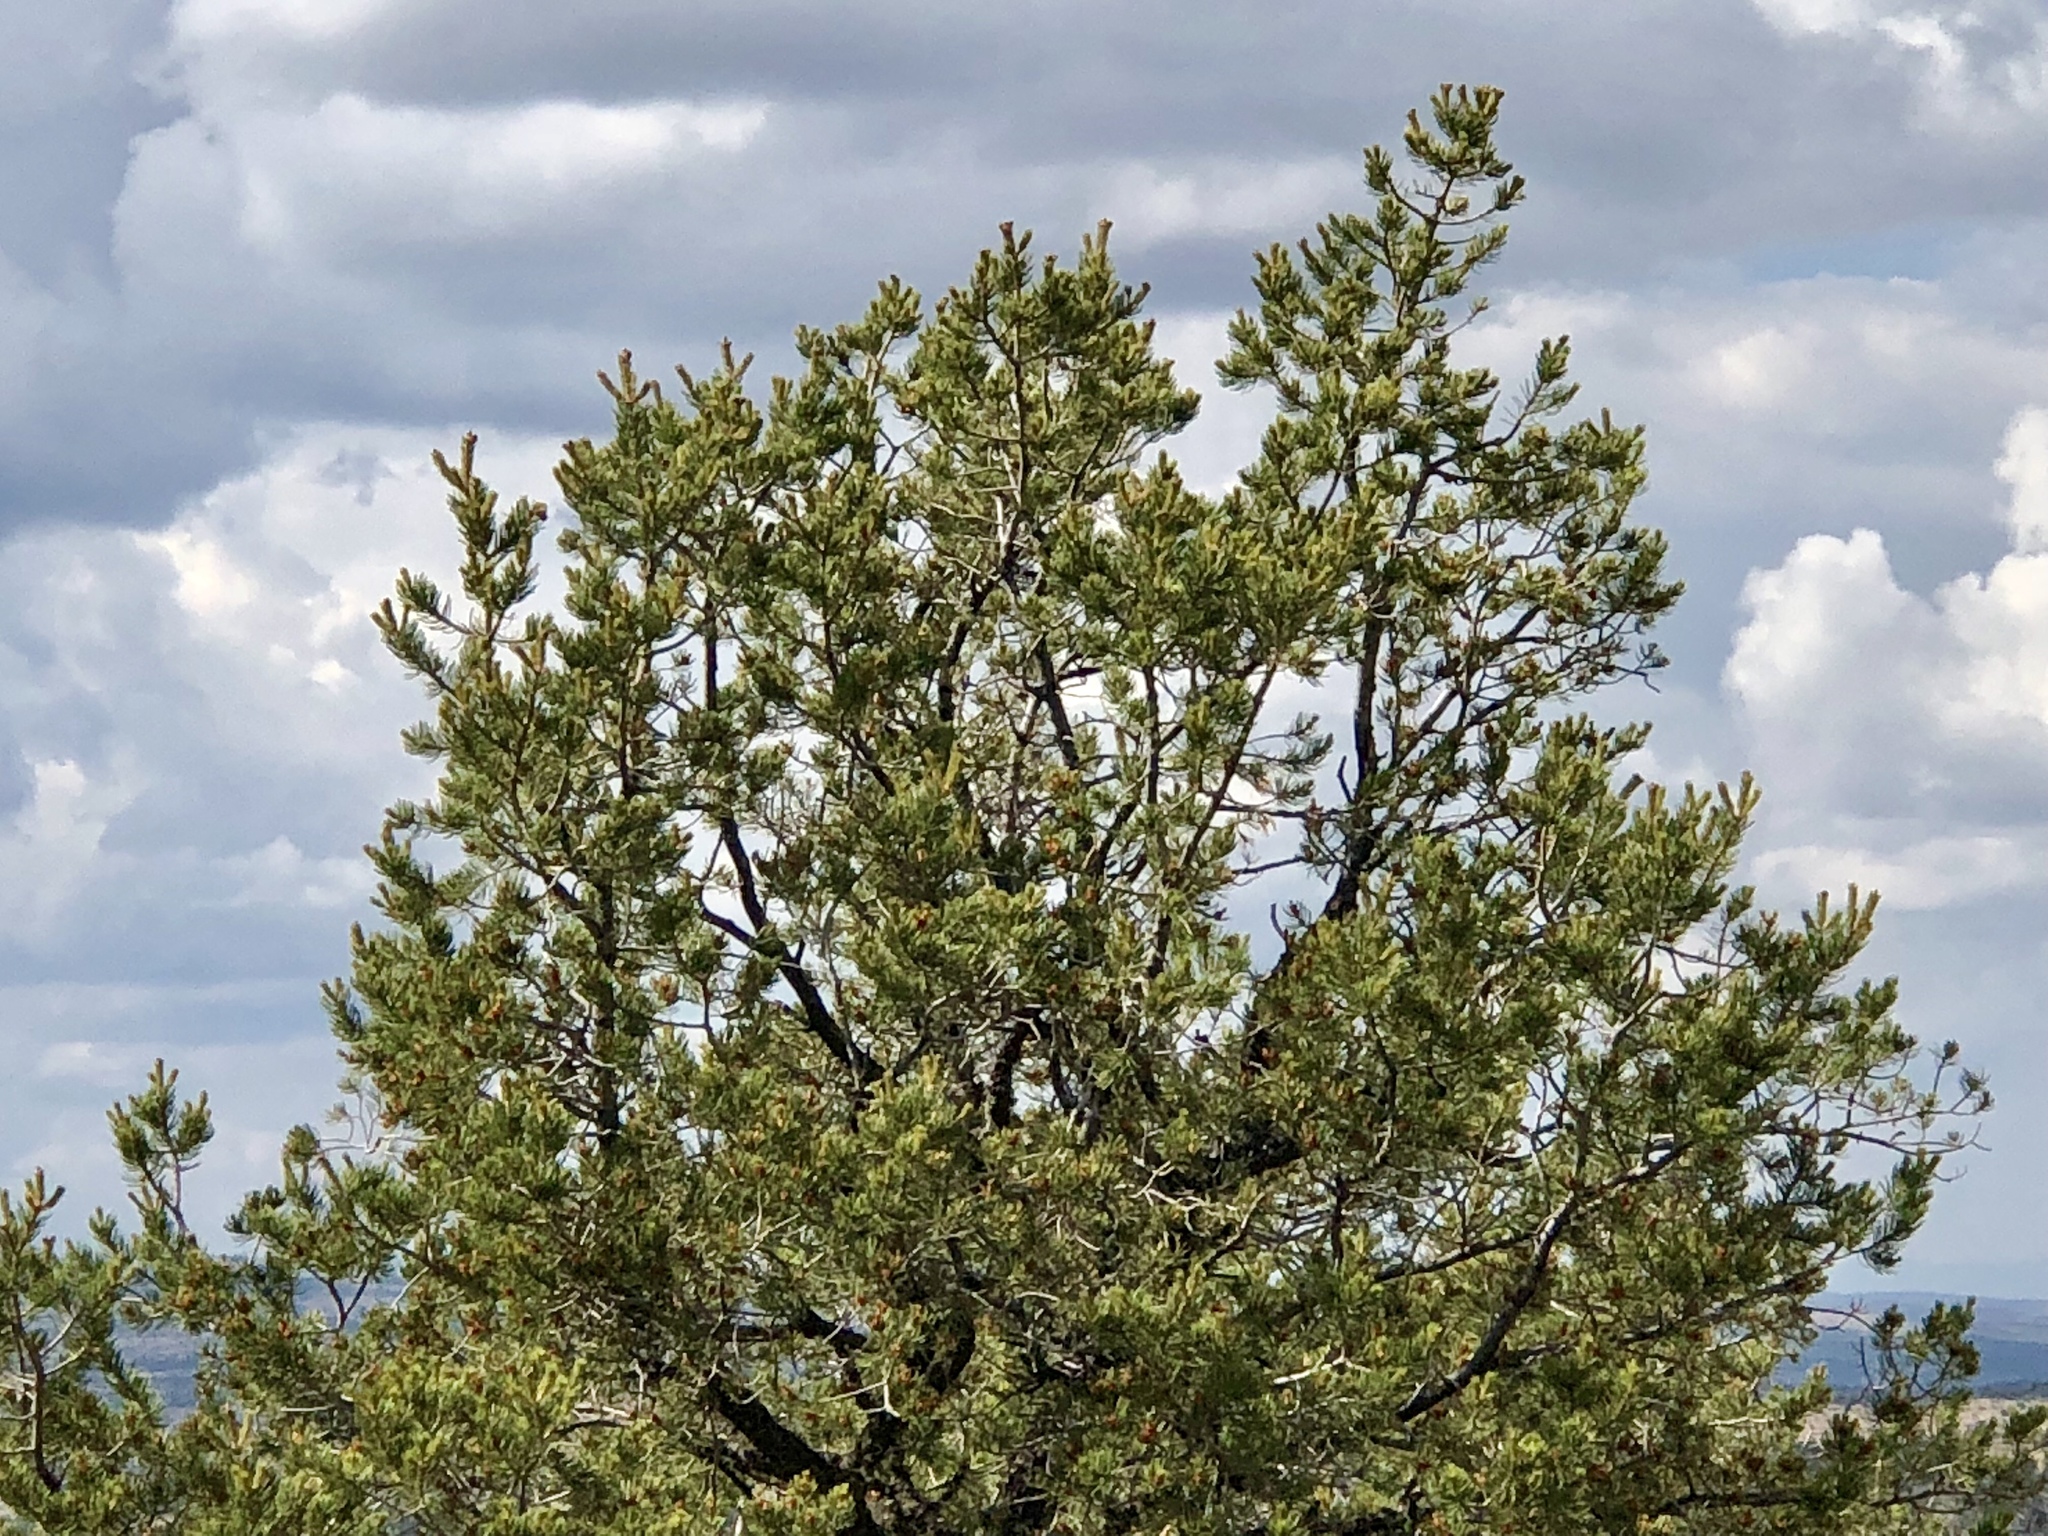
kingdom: Plantae
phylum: Tracheophyta
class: Pinopsida
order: Pinales
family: Pinaceae
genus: Pinus
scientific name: Pinus edulis
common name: Colorado pinyon
